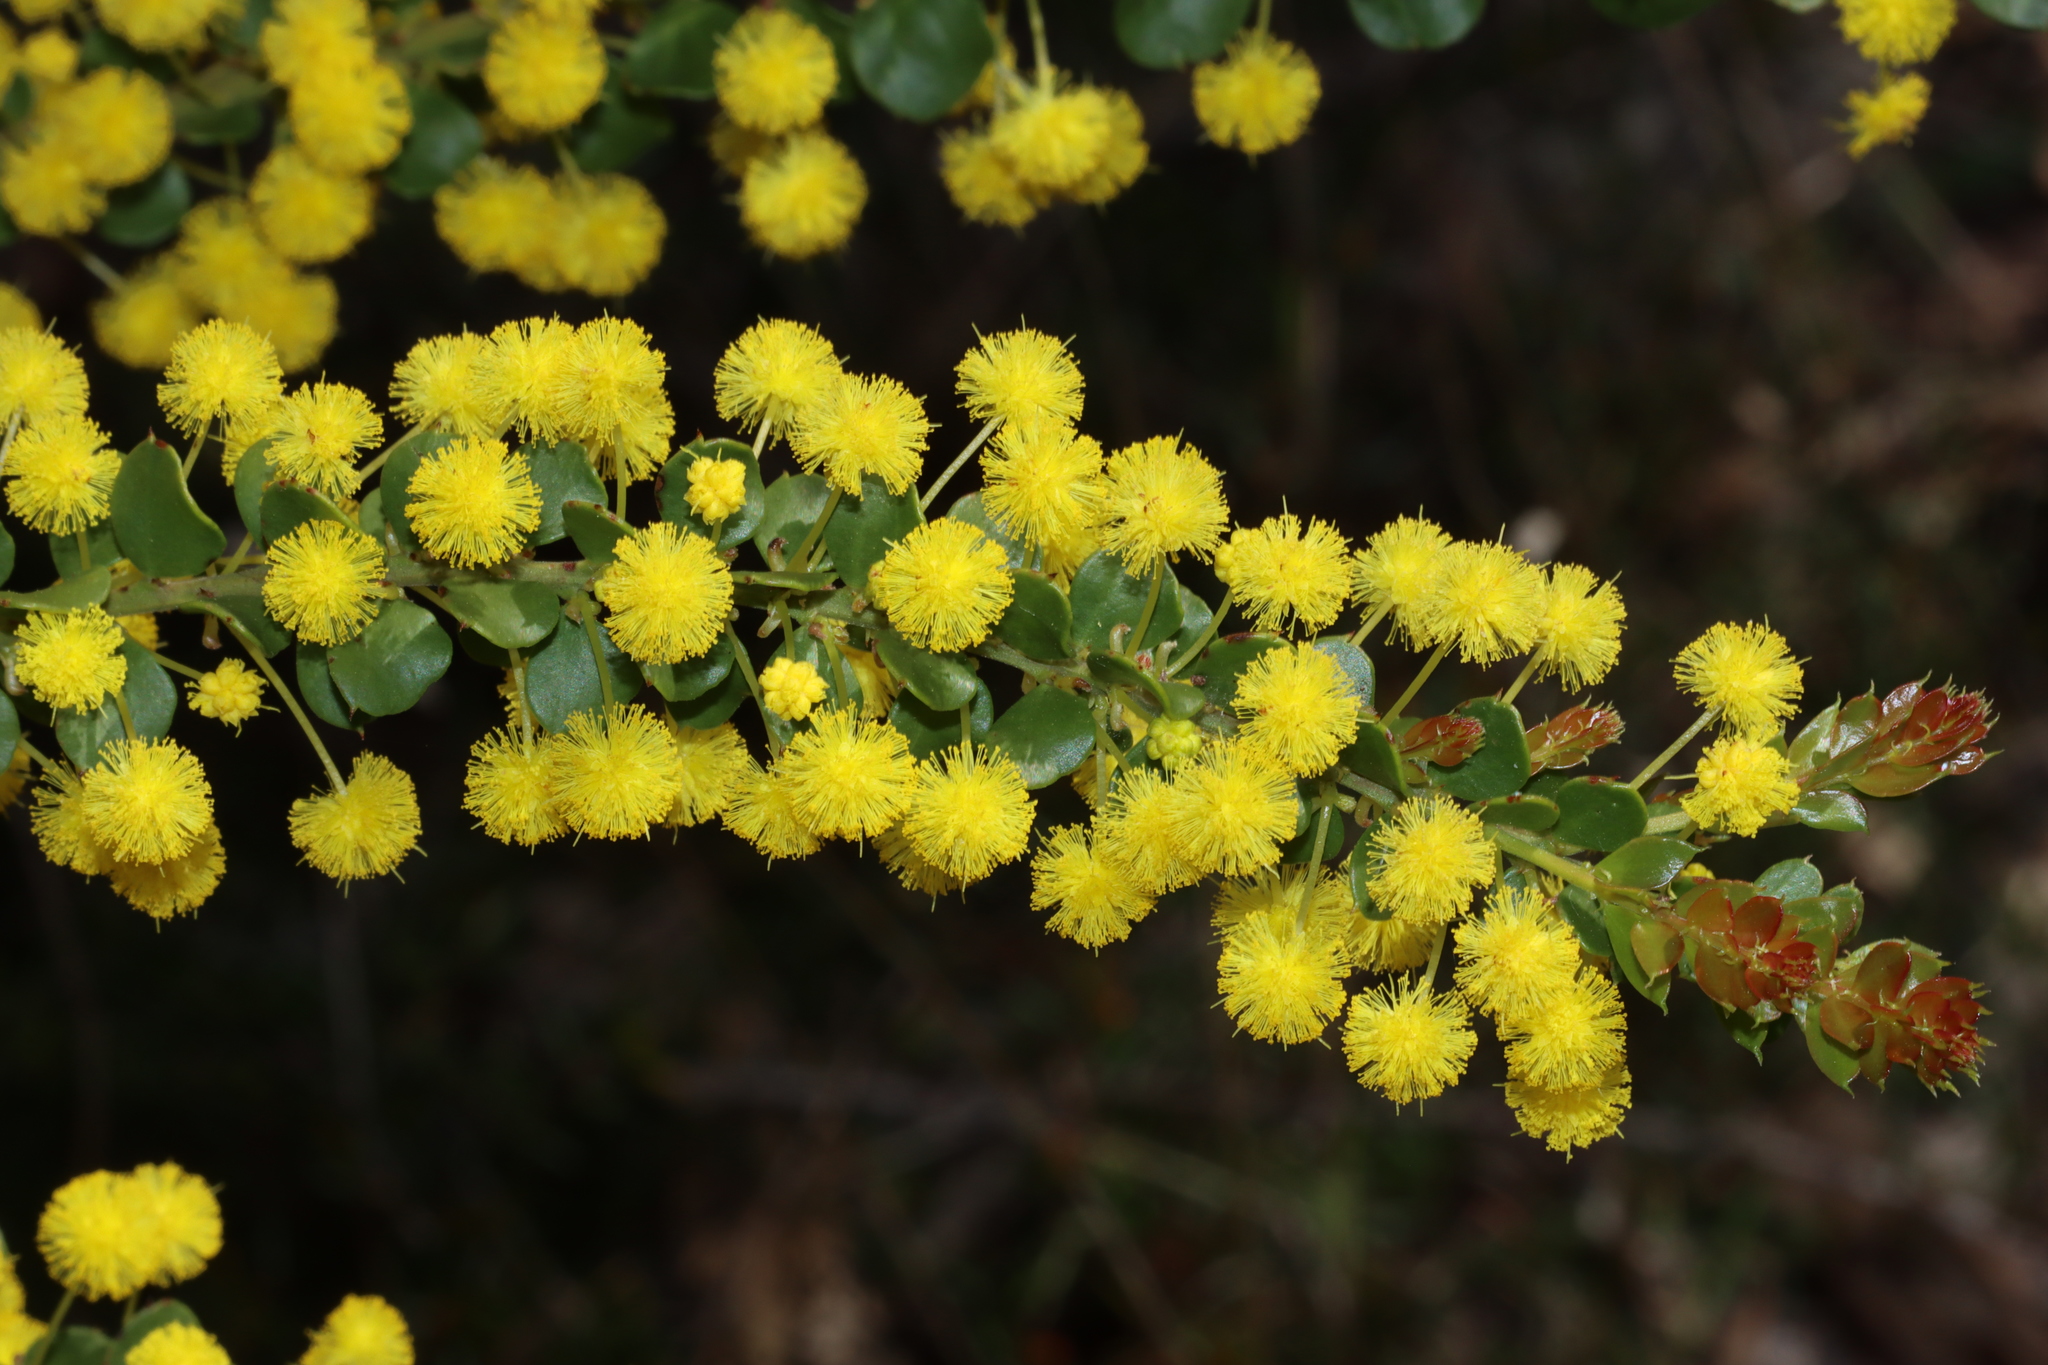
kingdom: Plantae
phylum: Tracheophyta
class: Magnoliopsida
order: Fabales
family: Fabaceae
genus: Acacia
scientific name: Acacia acinacea
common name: Gold-dust acacia
